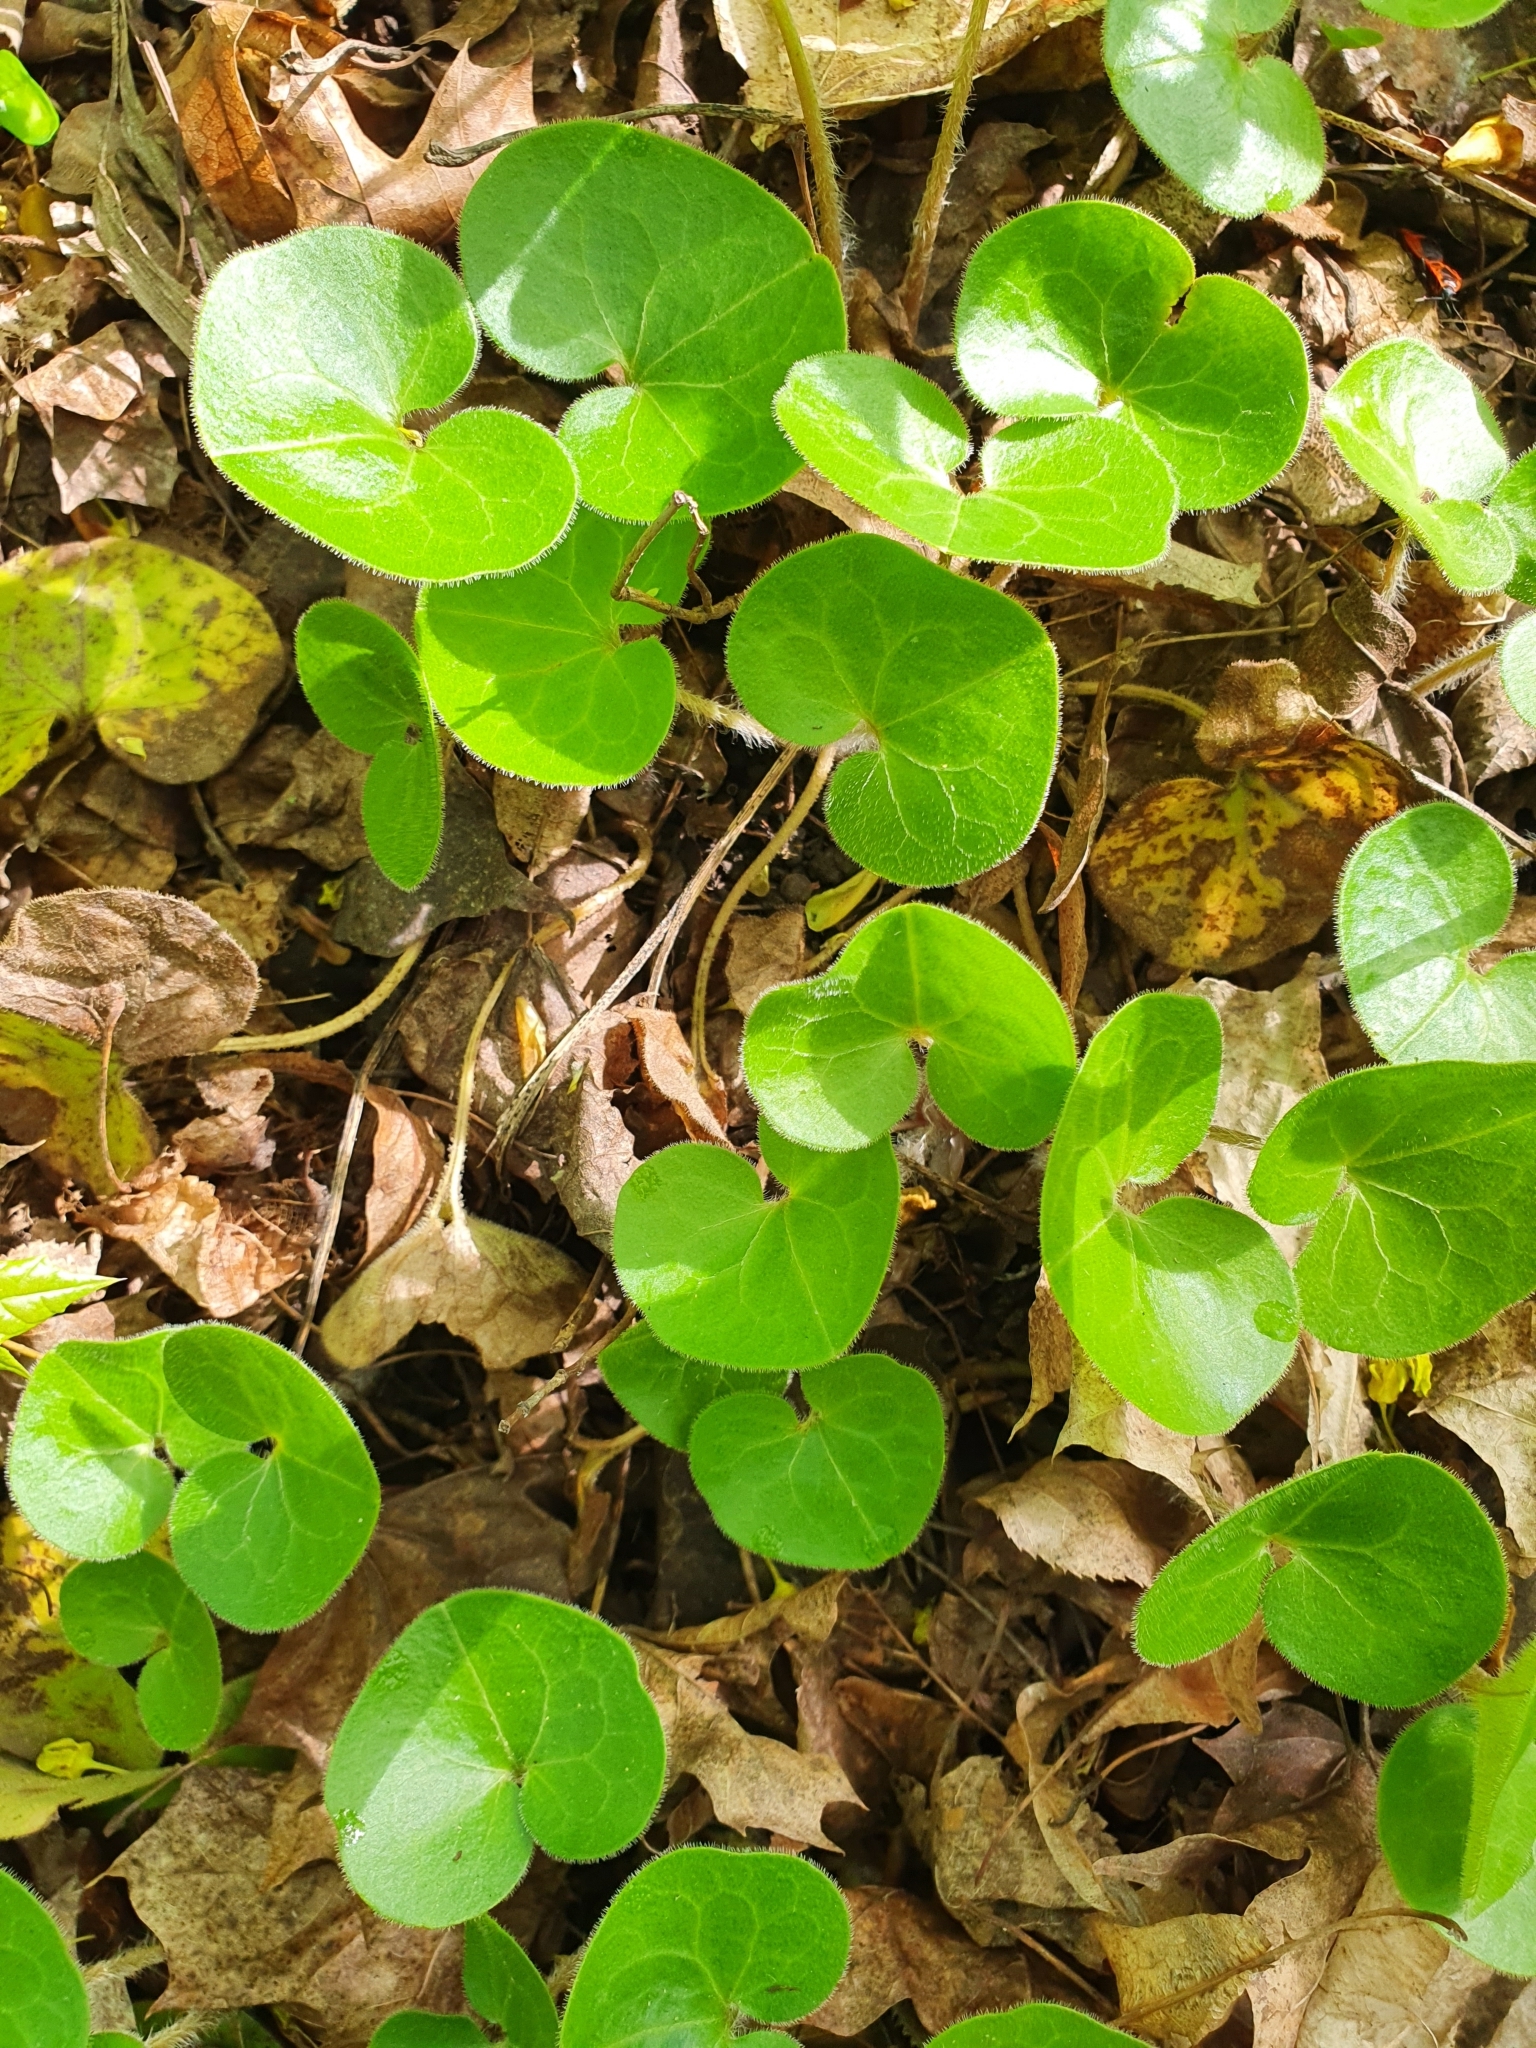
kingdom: Plantae
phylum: Tracheophyta
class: Magnoliopsida
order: Piperales
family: Aristolochiaceae
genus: Asarum
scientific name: Asarum europaeum
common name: Asarabacca
